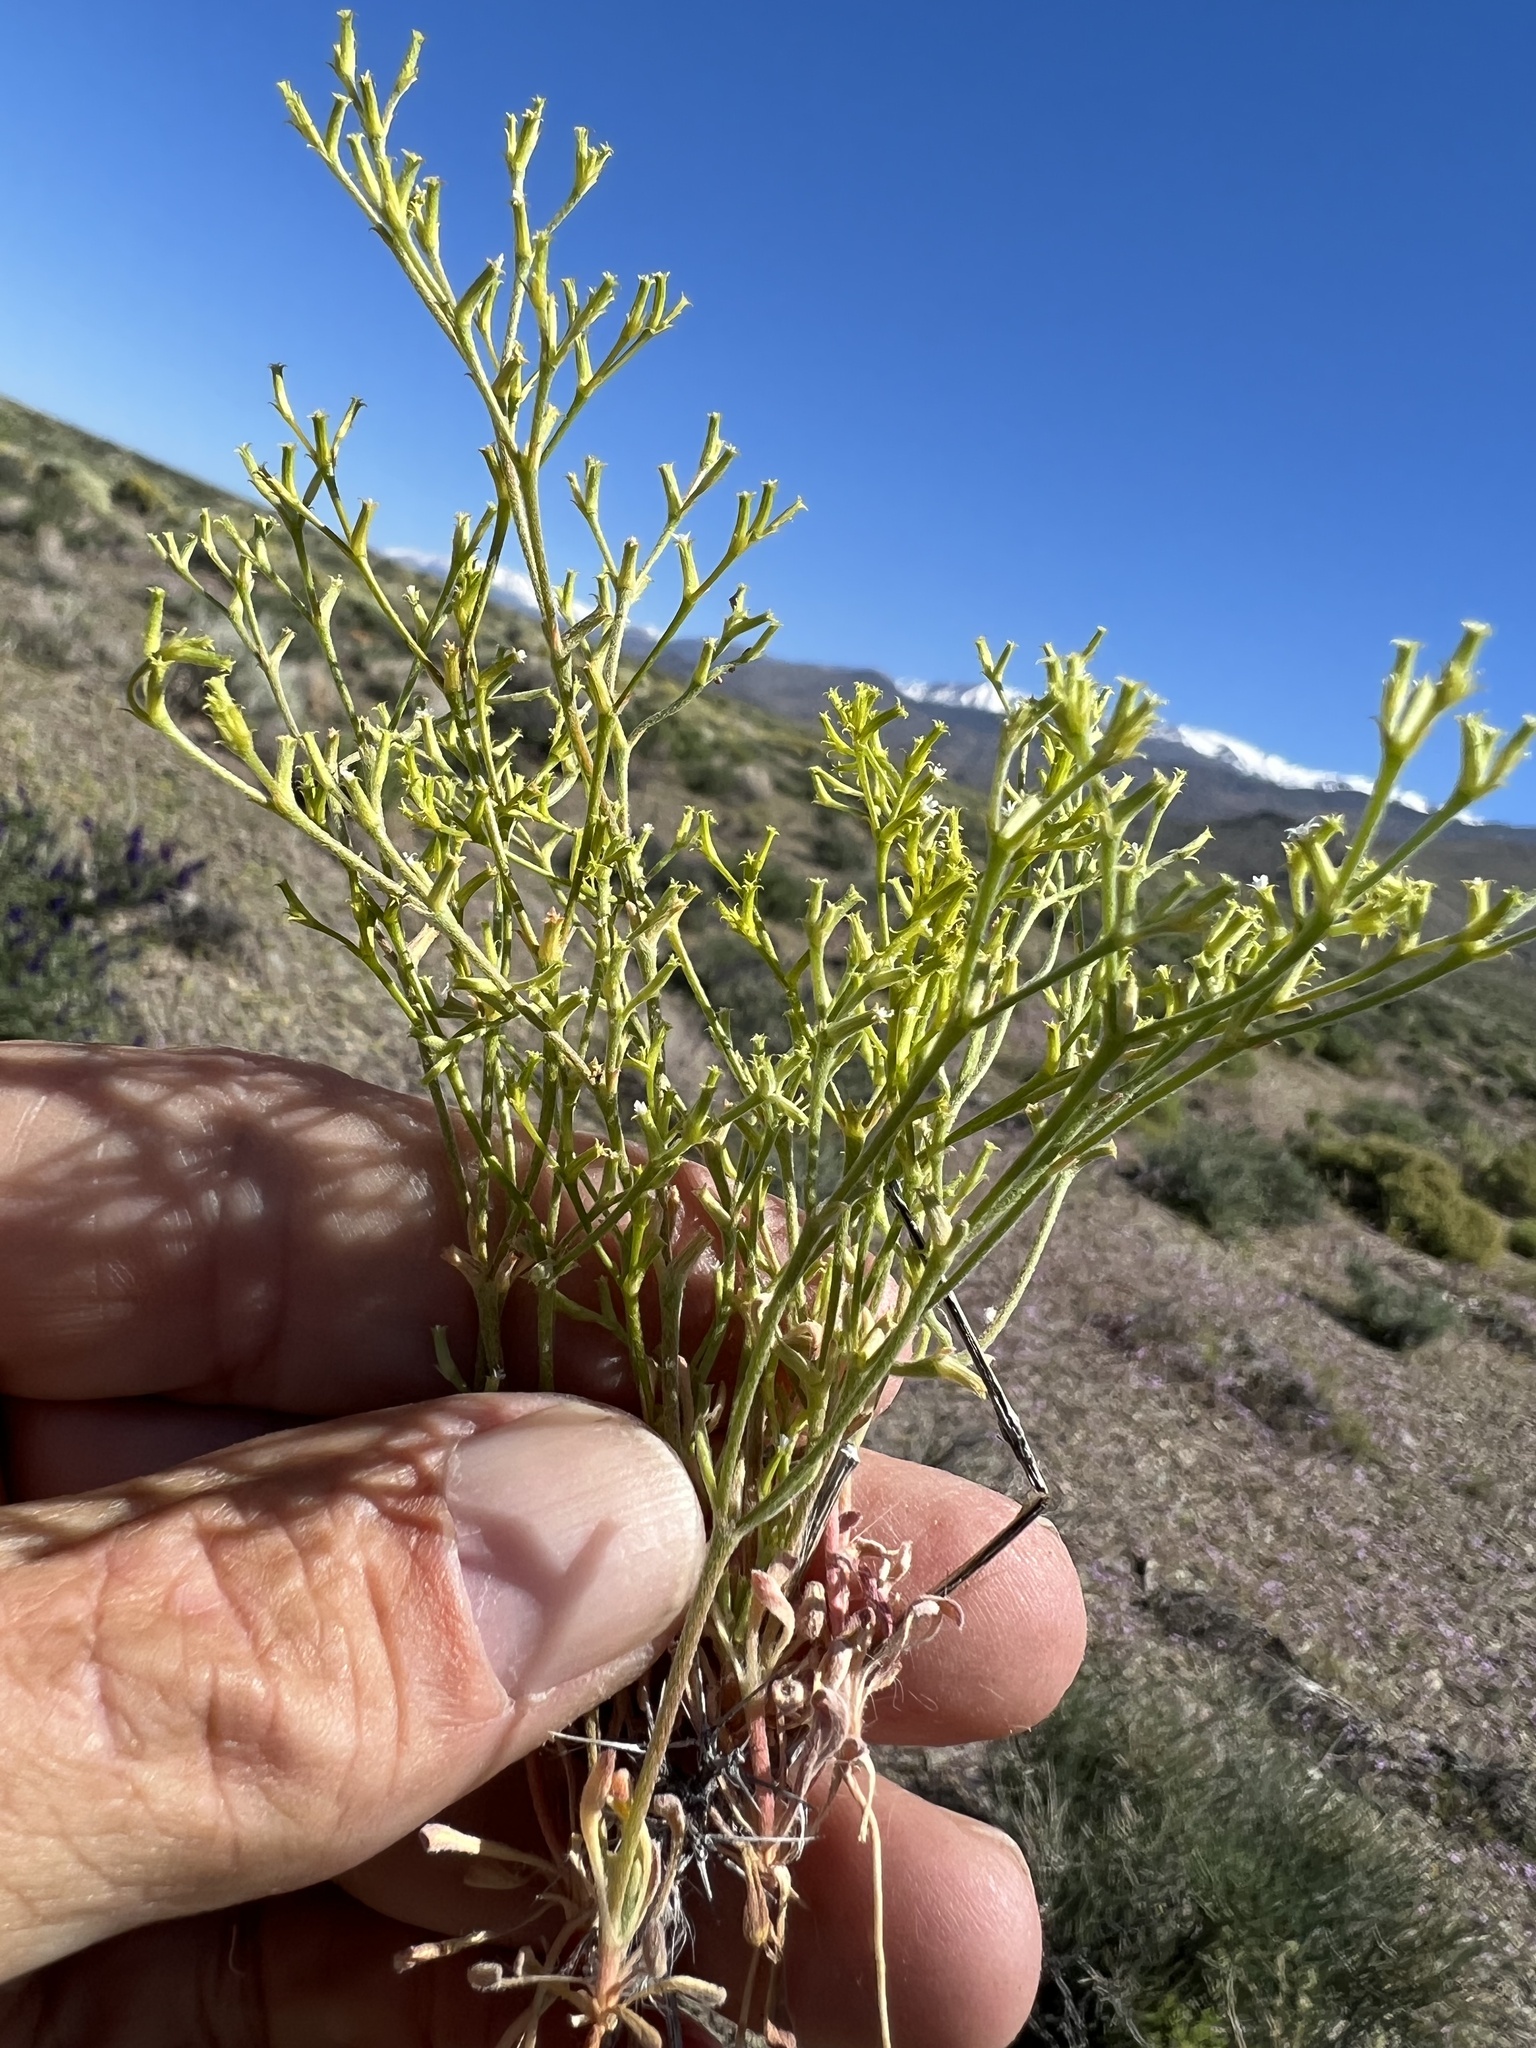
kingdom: Plantae
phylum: Tracheophyta
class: Magnoliopsida
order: Caryophyllales
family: Polygonaceae
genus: Chorizanthe
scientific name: Chorizanthe brevicornu
